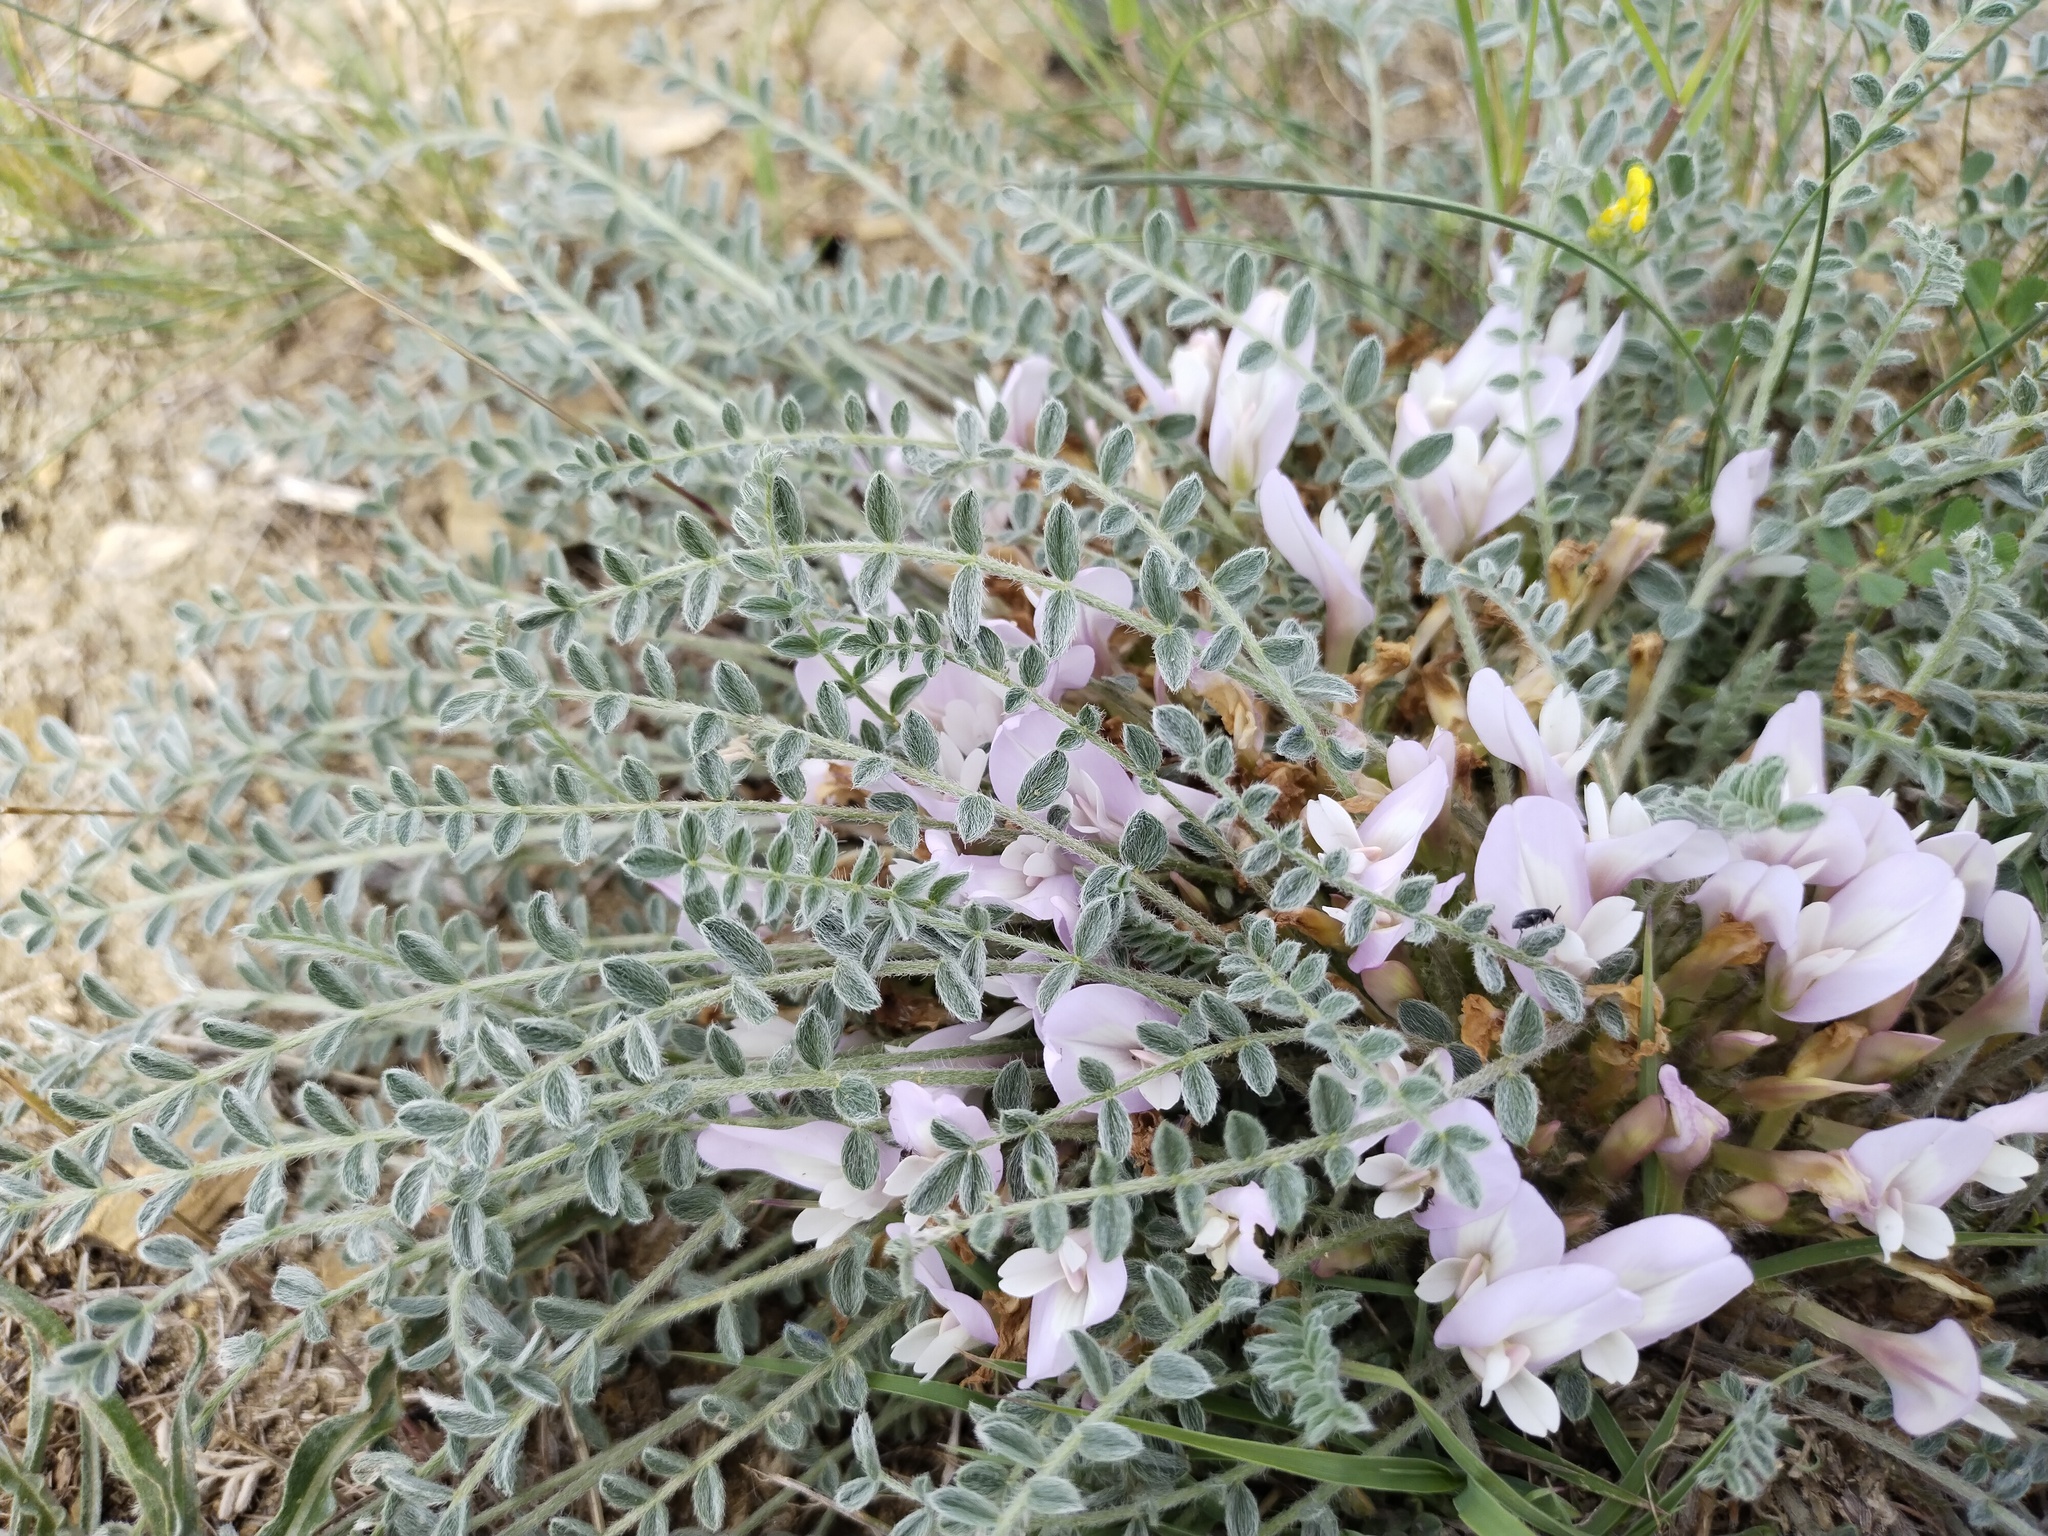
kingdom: Plantae
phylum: Tracheophyta
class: Magnoliopsida
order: Fabales
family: Fabaceae
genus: Astragalus
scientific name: Astragalus dolichophyllus
